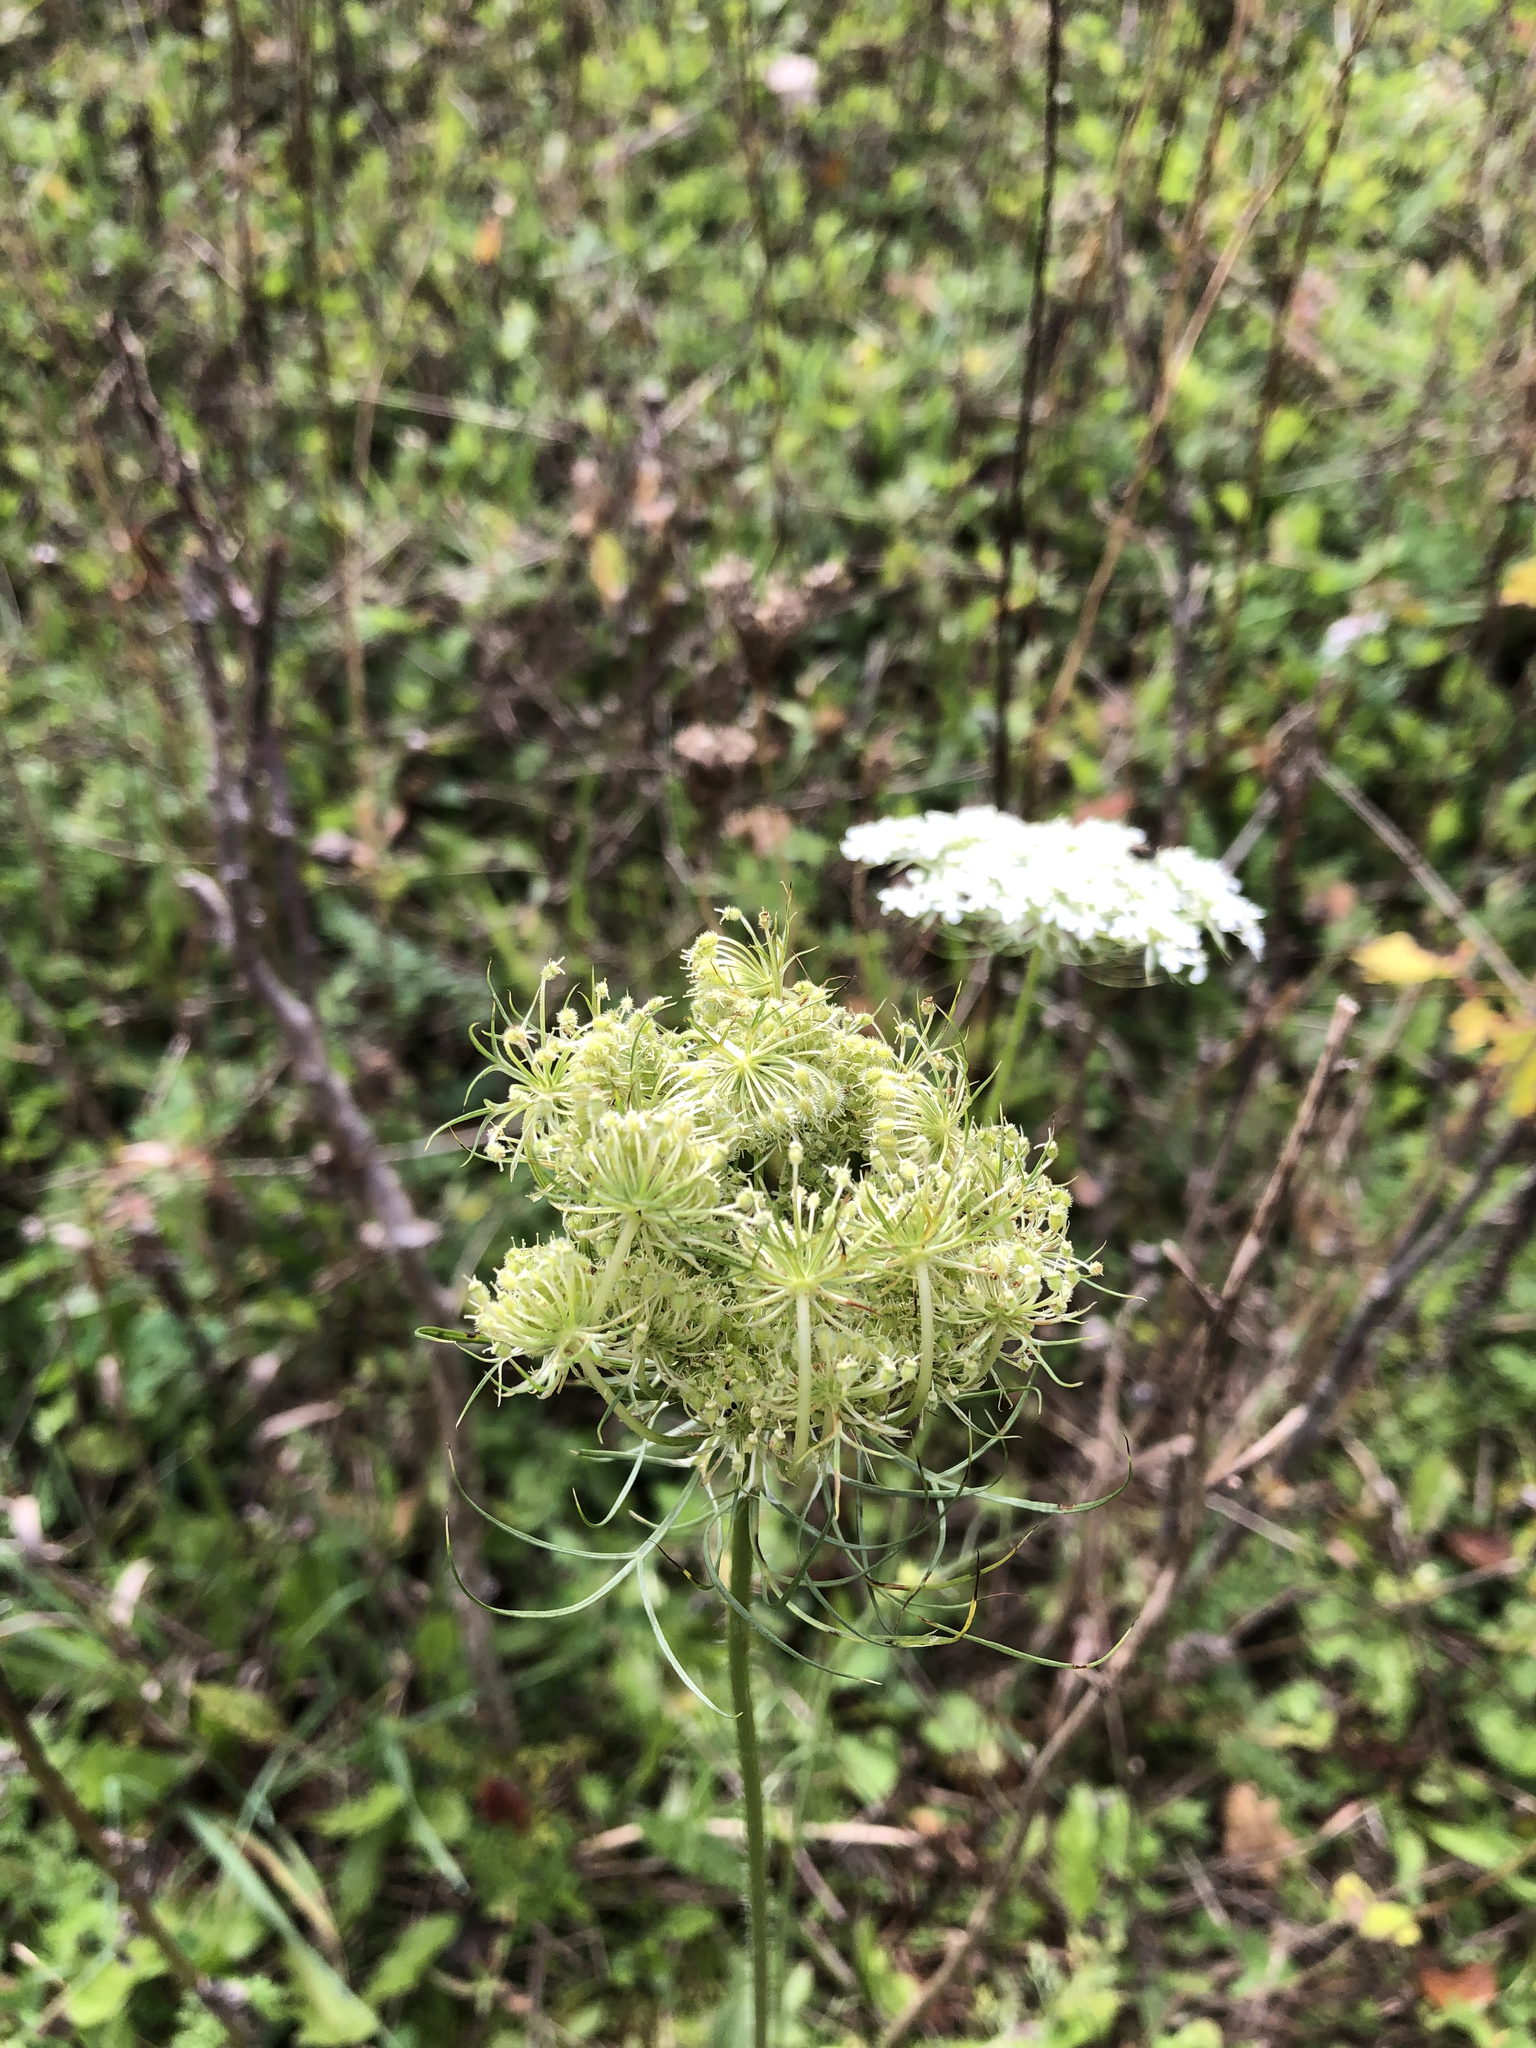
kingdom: Plantae
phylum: Tracheophyta
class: Magnoliopsida
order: Apiales
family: Apiaceae
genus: Daucus
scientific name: Daucus carota
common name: Wild carrot
